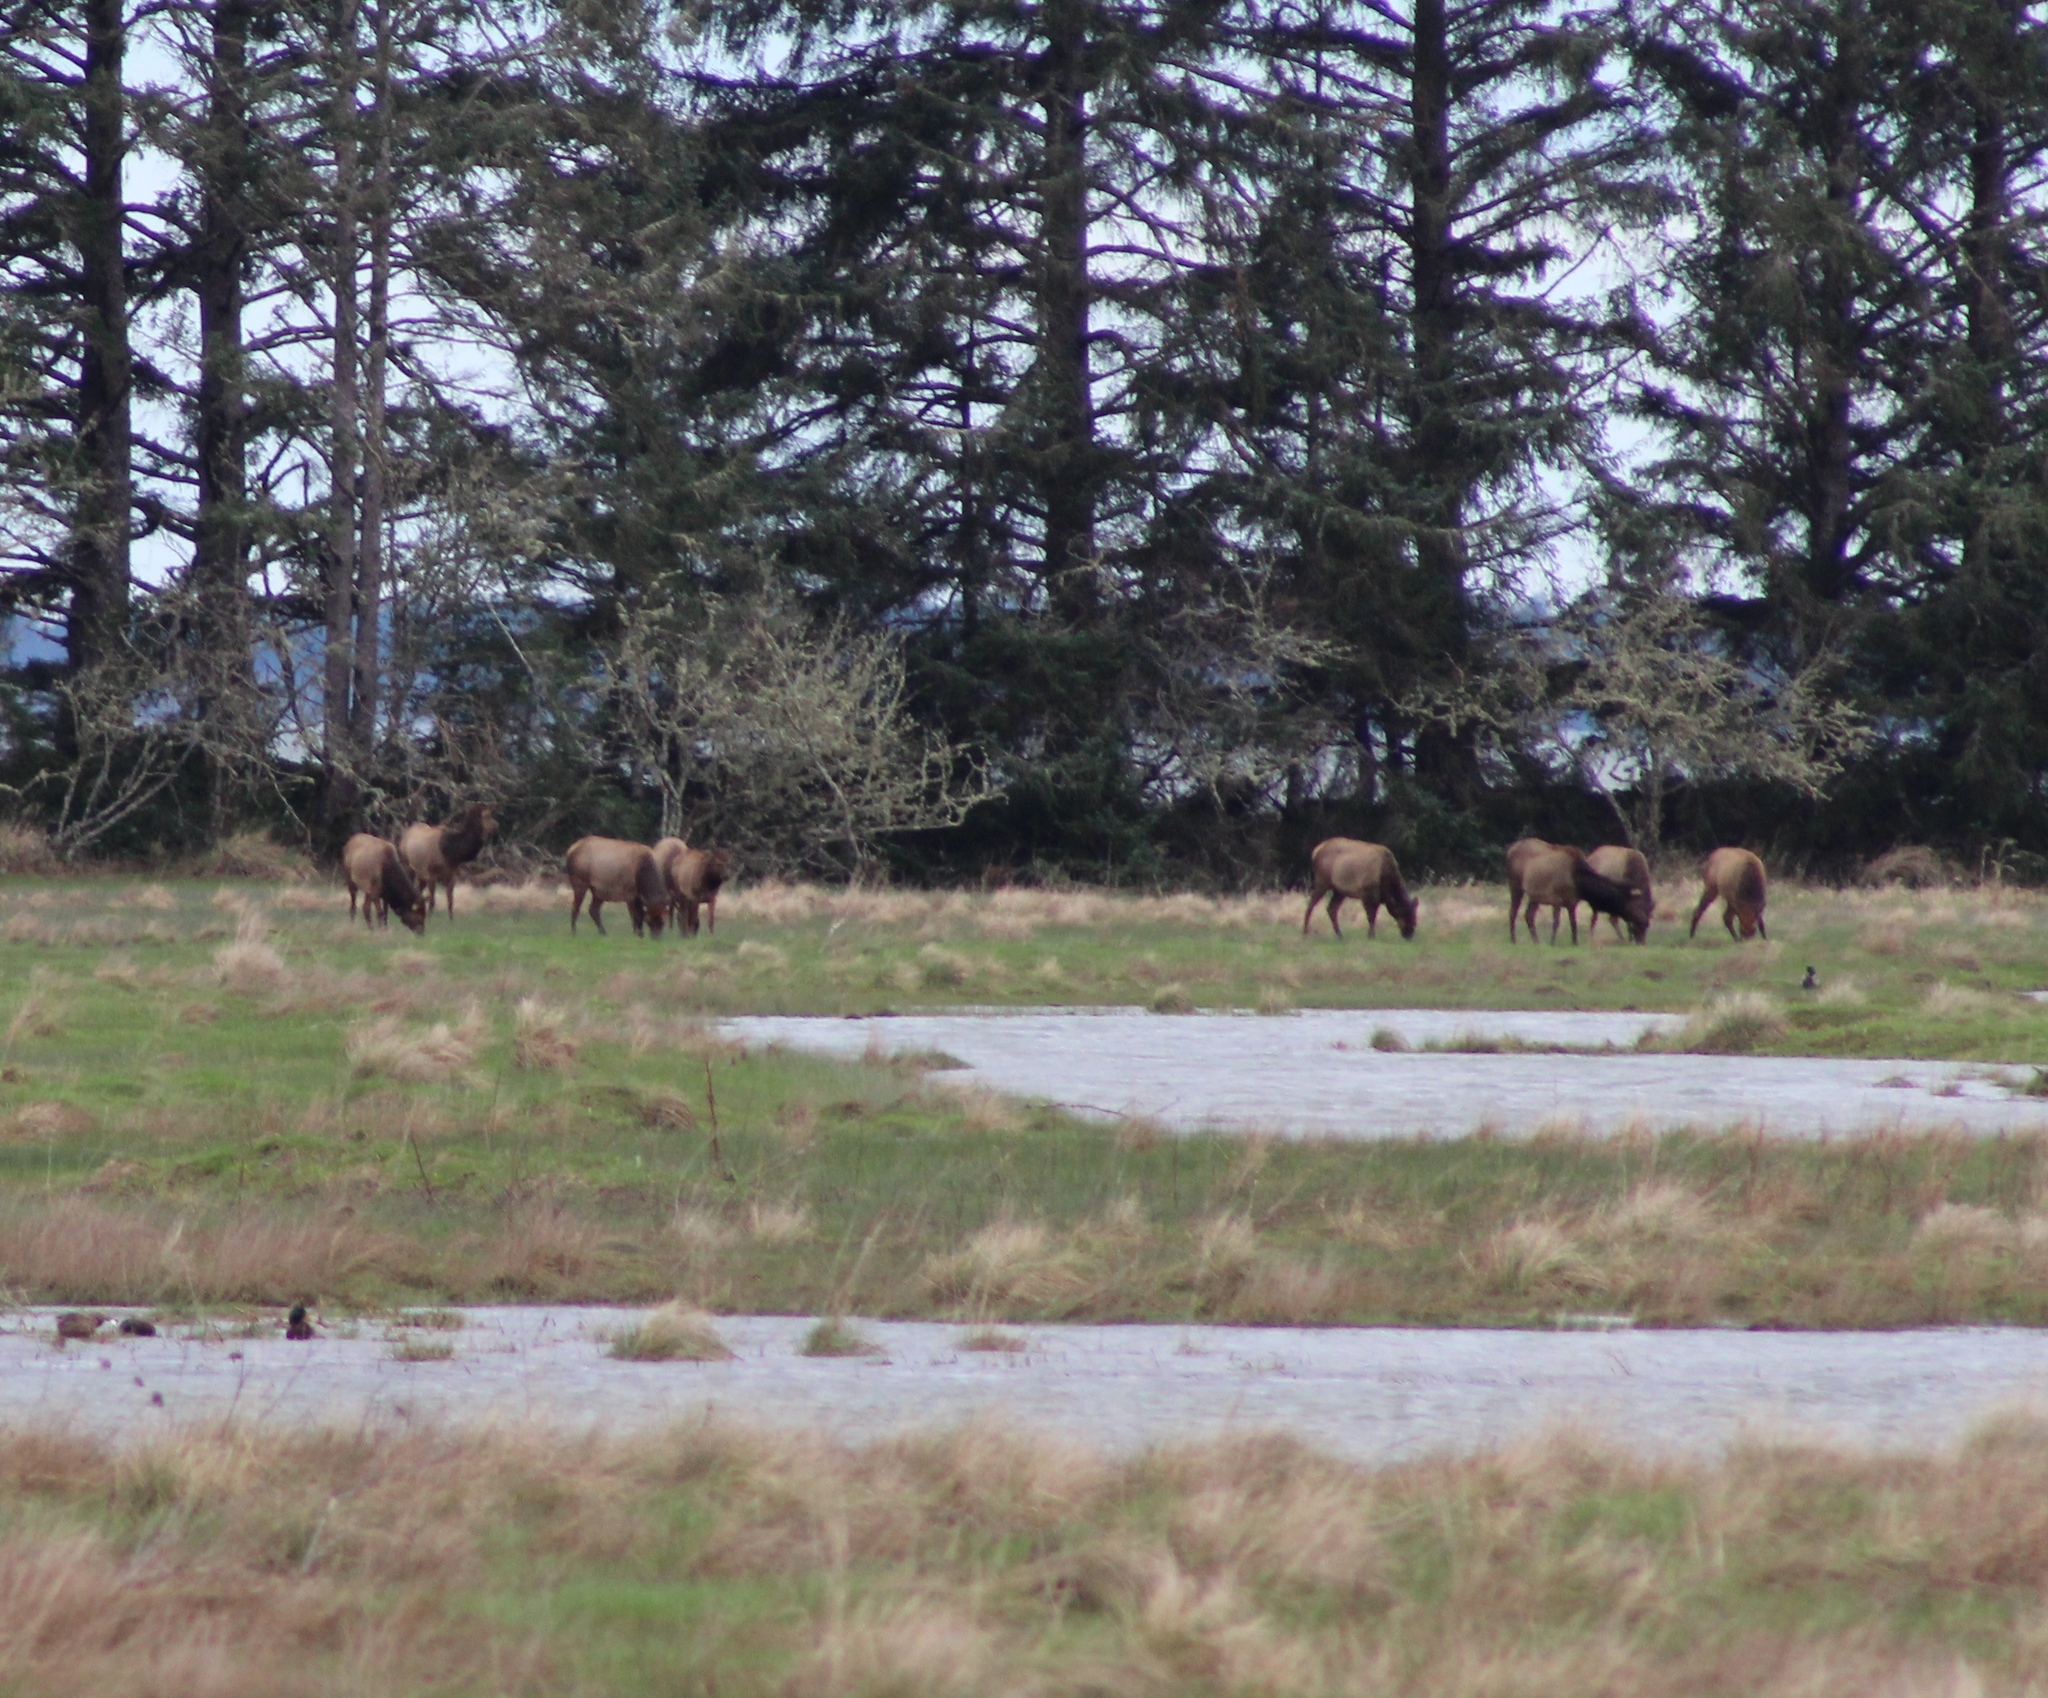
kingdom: Animalia
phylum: Chordata
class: Mammalia
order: Artiodactyla
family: Cervidae
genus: Cervus
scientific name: Cervus elaphus
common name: Red deer
